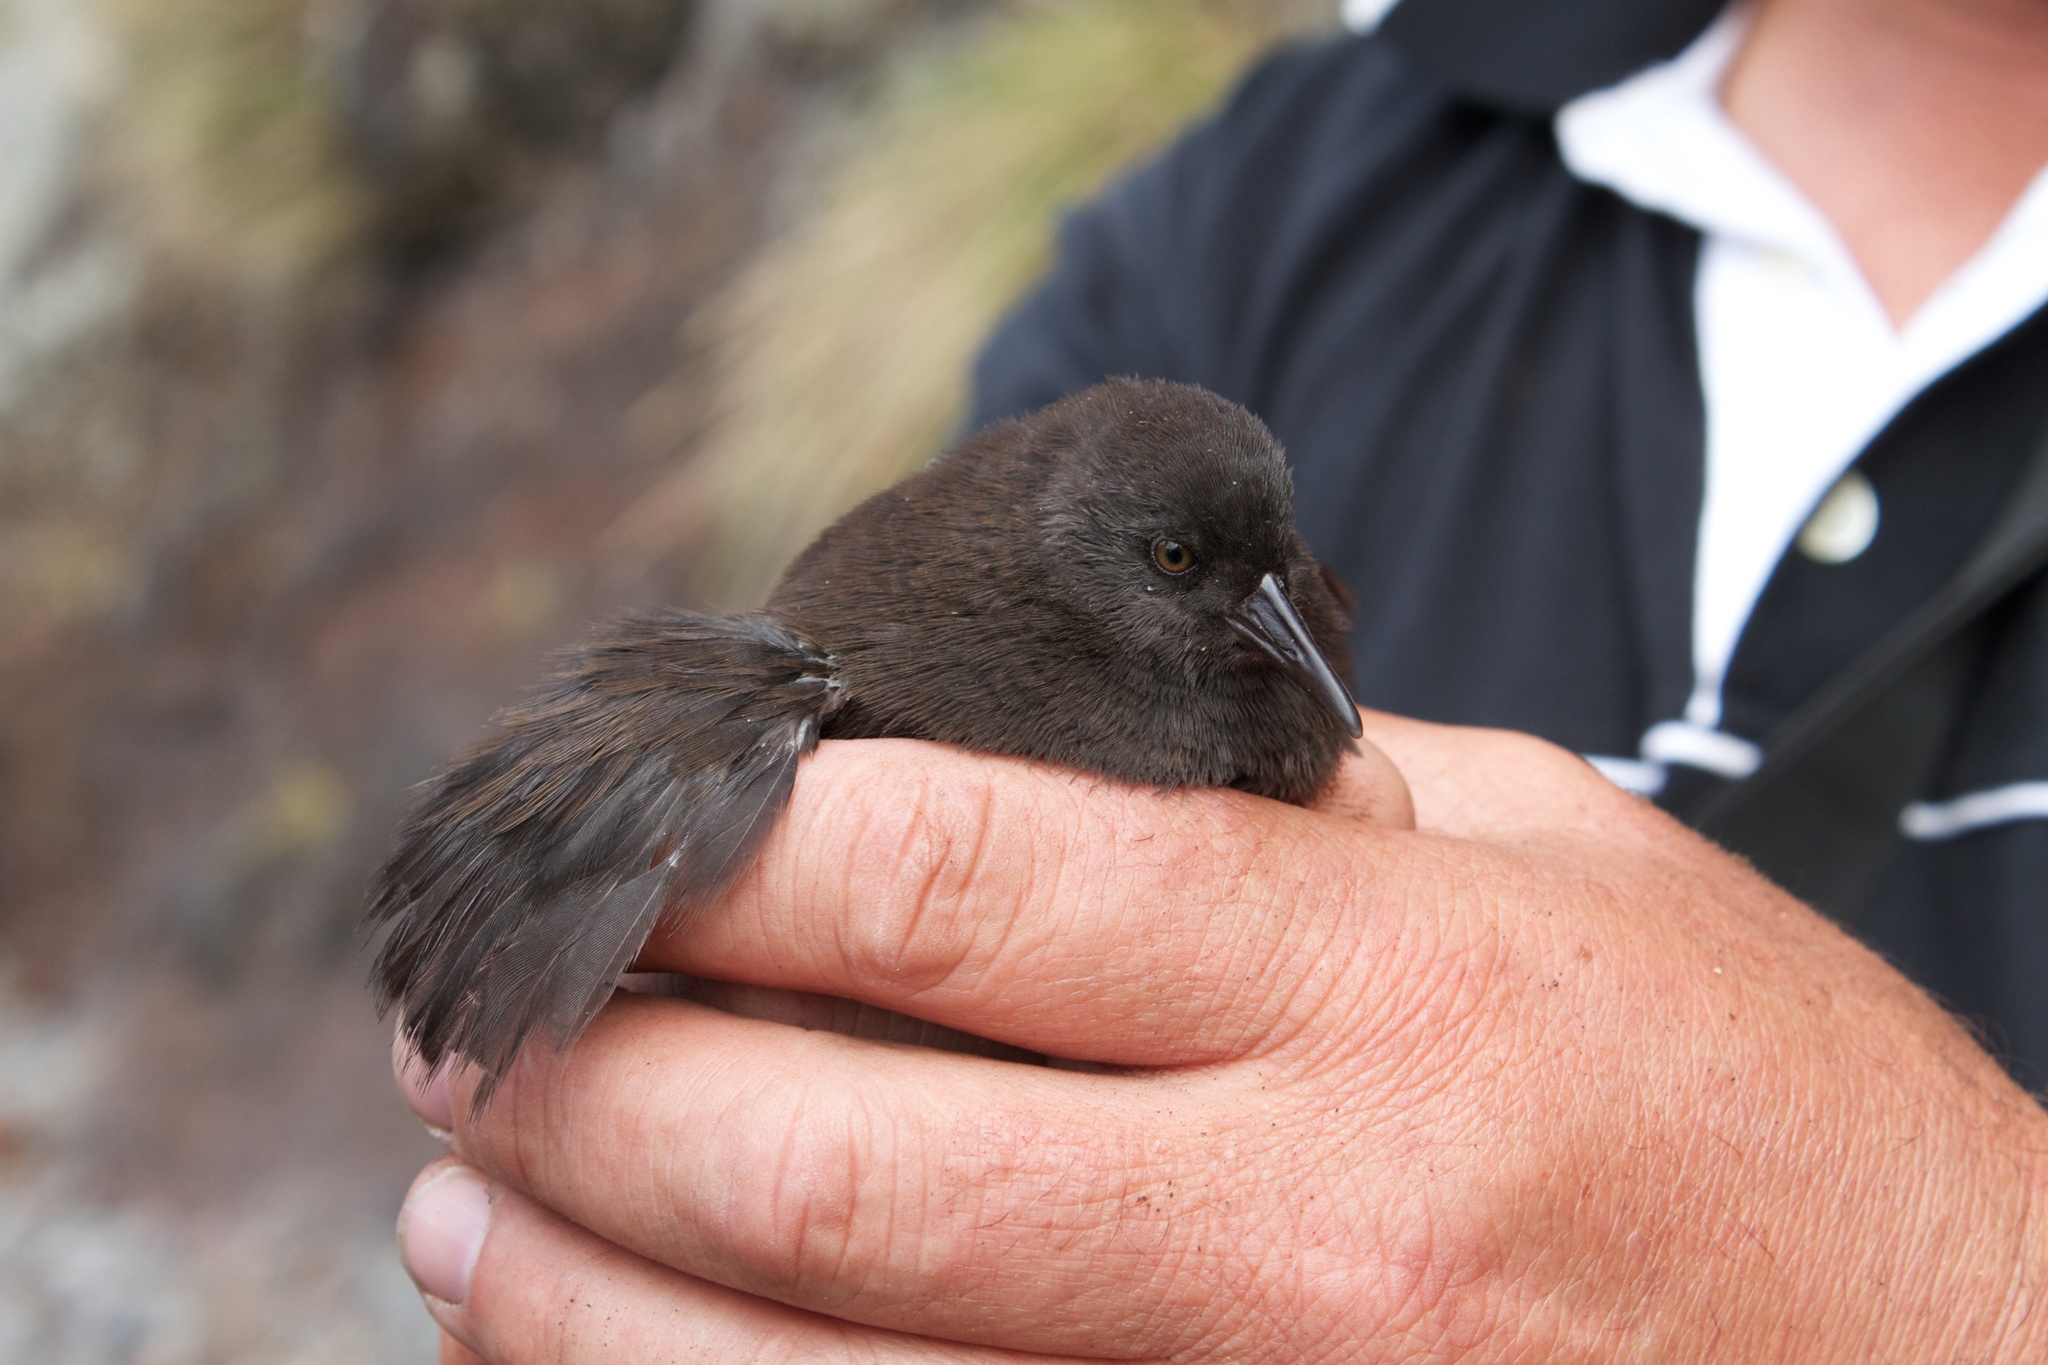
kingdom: Animalia
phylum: Chordata
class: Aves
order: Gruiformes
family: Rallidae
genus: Atlantisia
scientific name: Atlantisia rogersi
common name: Inaccessible island rail
